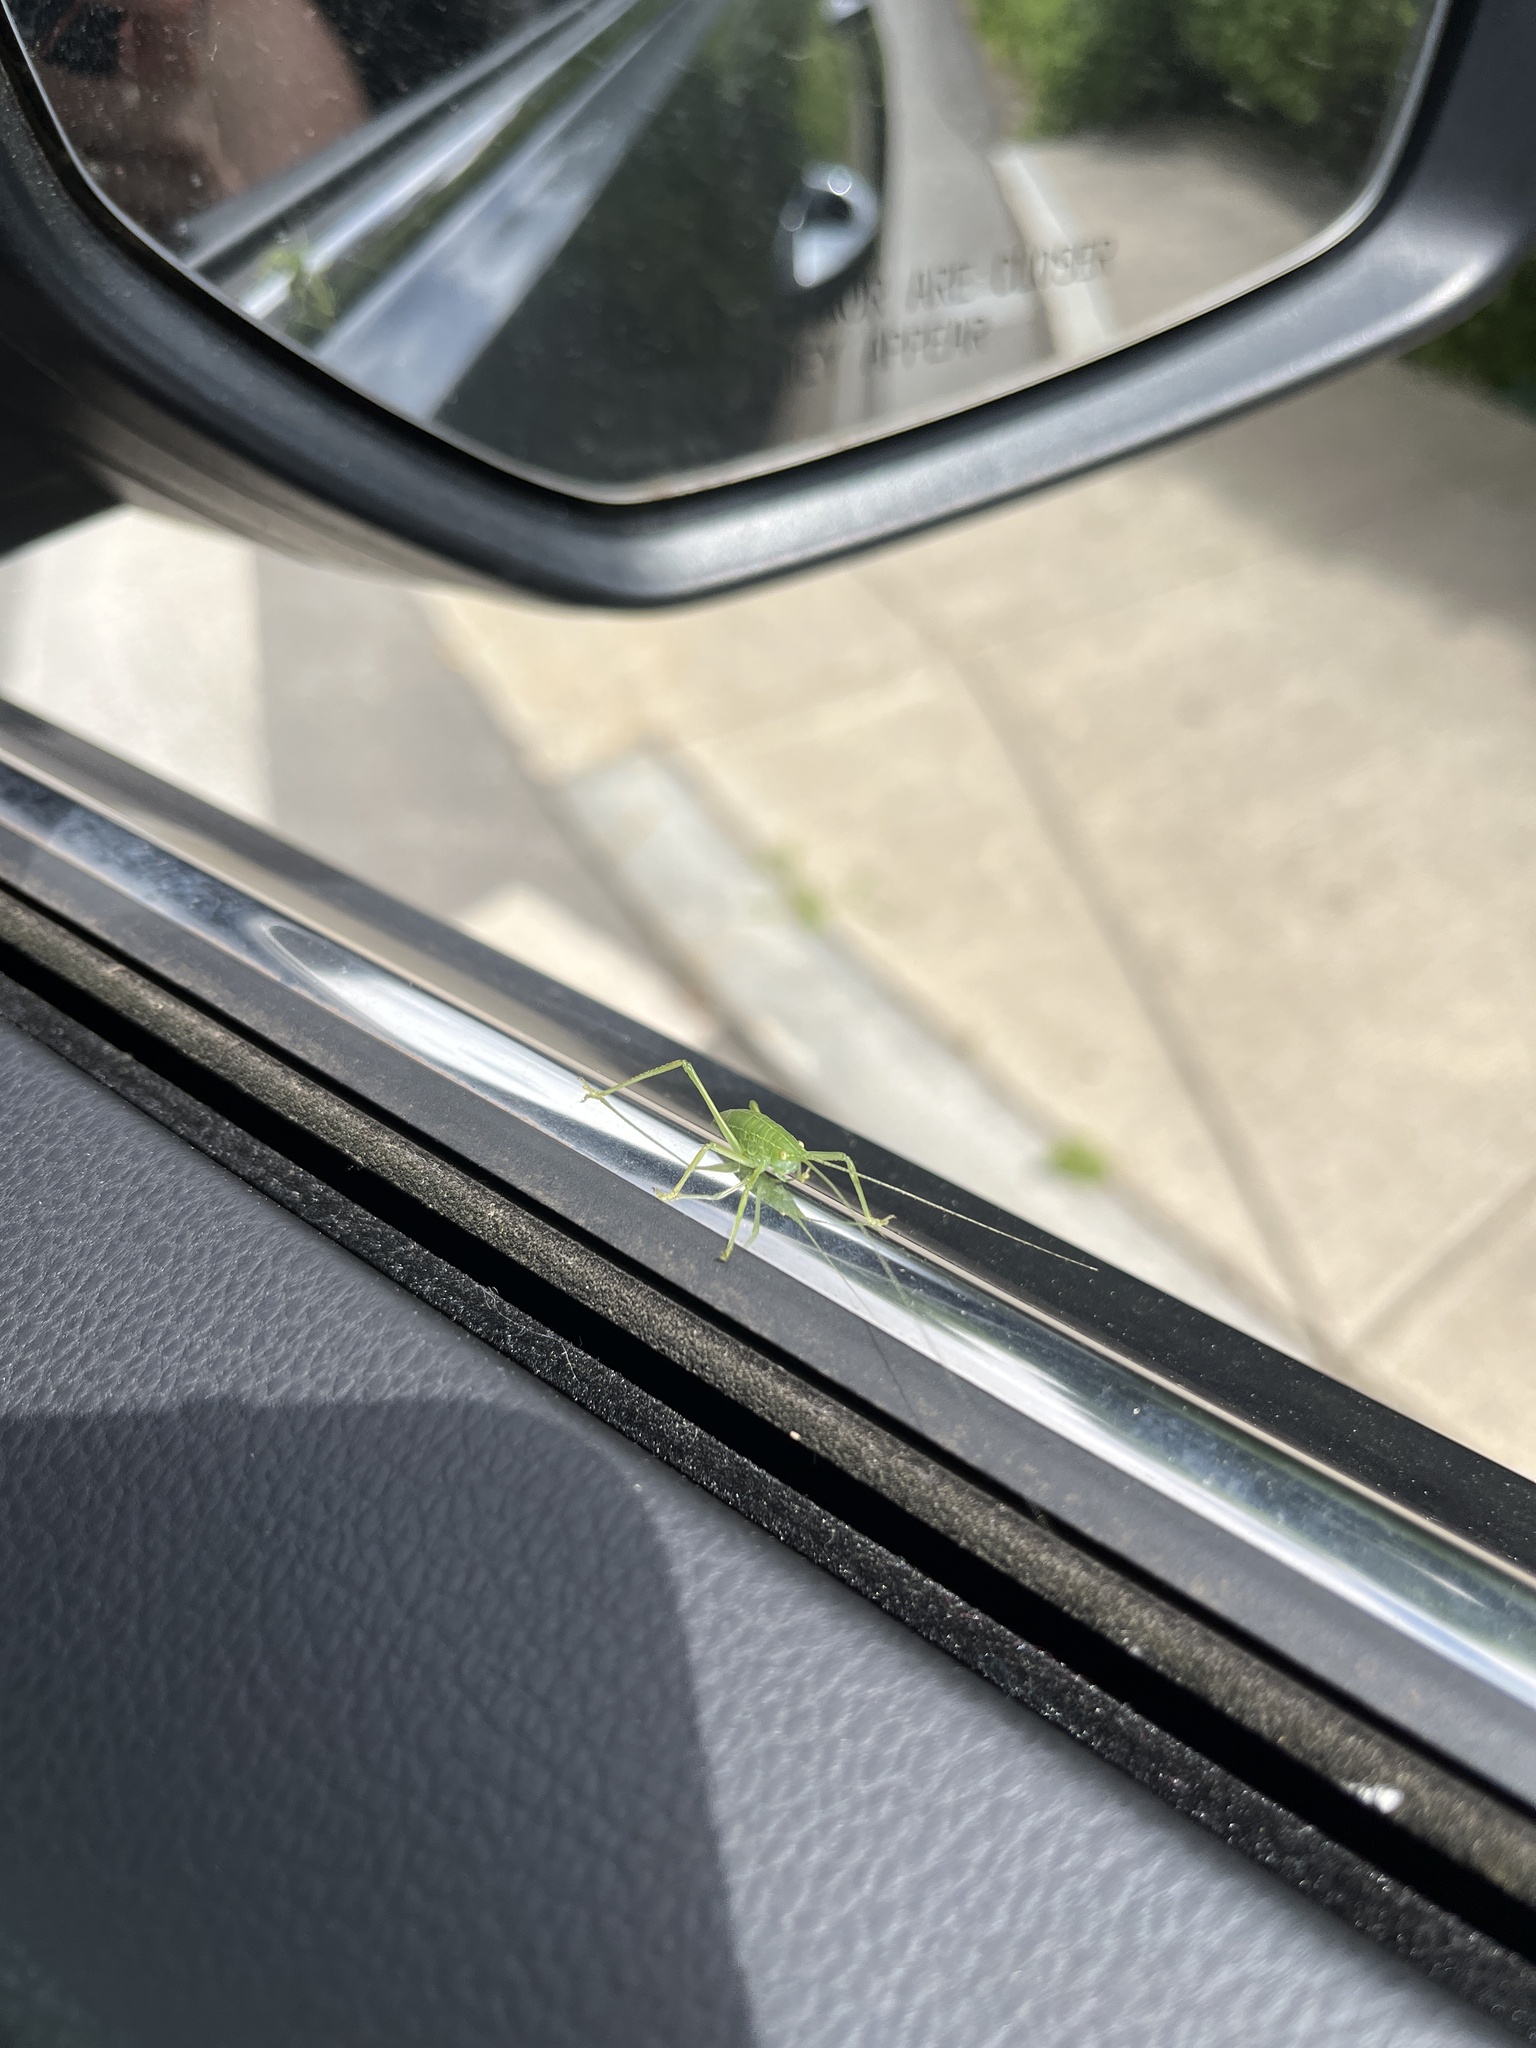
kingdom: Animalia
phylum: Arthropoda
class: Insecta
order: Orthoptera
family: Tettigoniidae
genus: Pterophylla
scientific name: Pterophylla camellifolia
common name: Common true katydid
